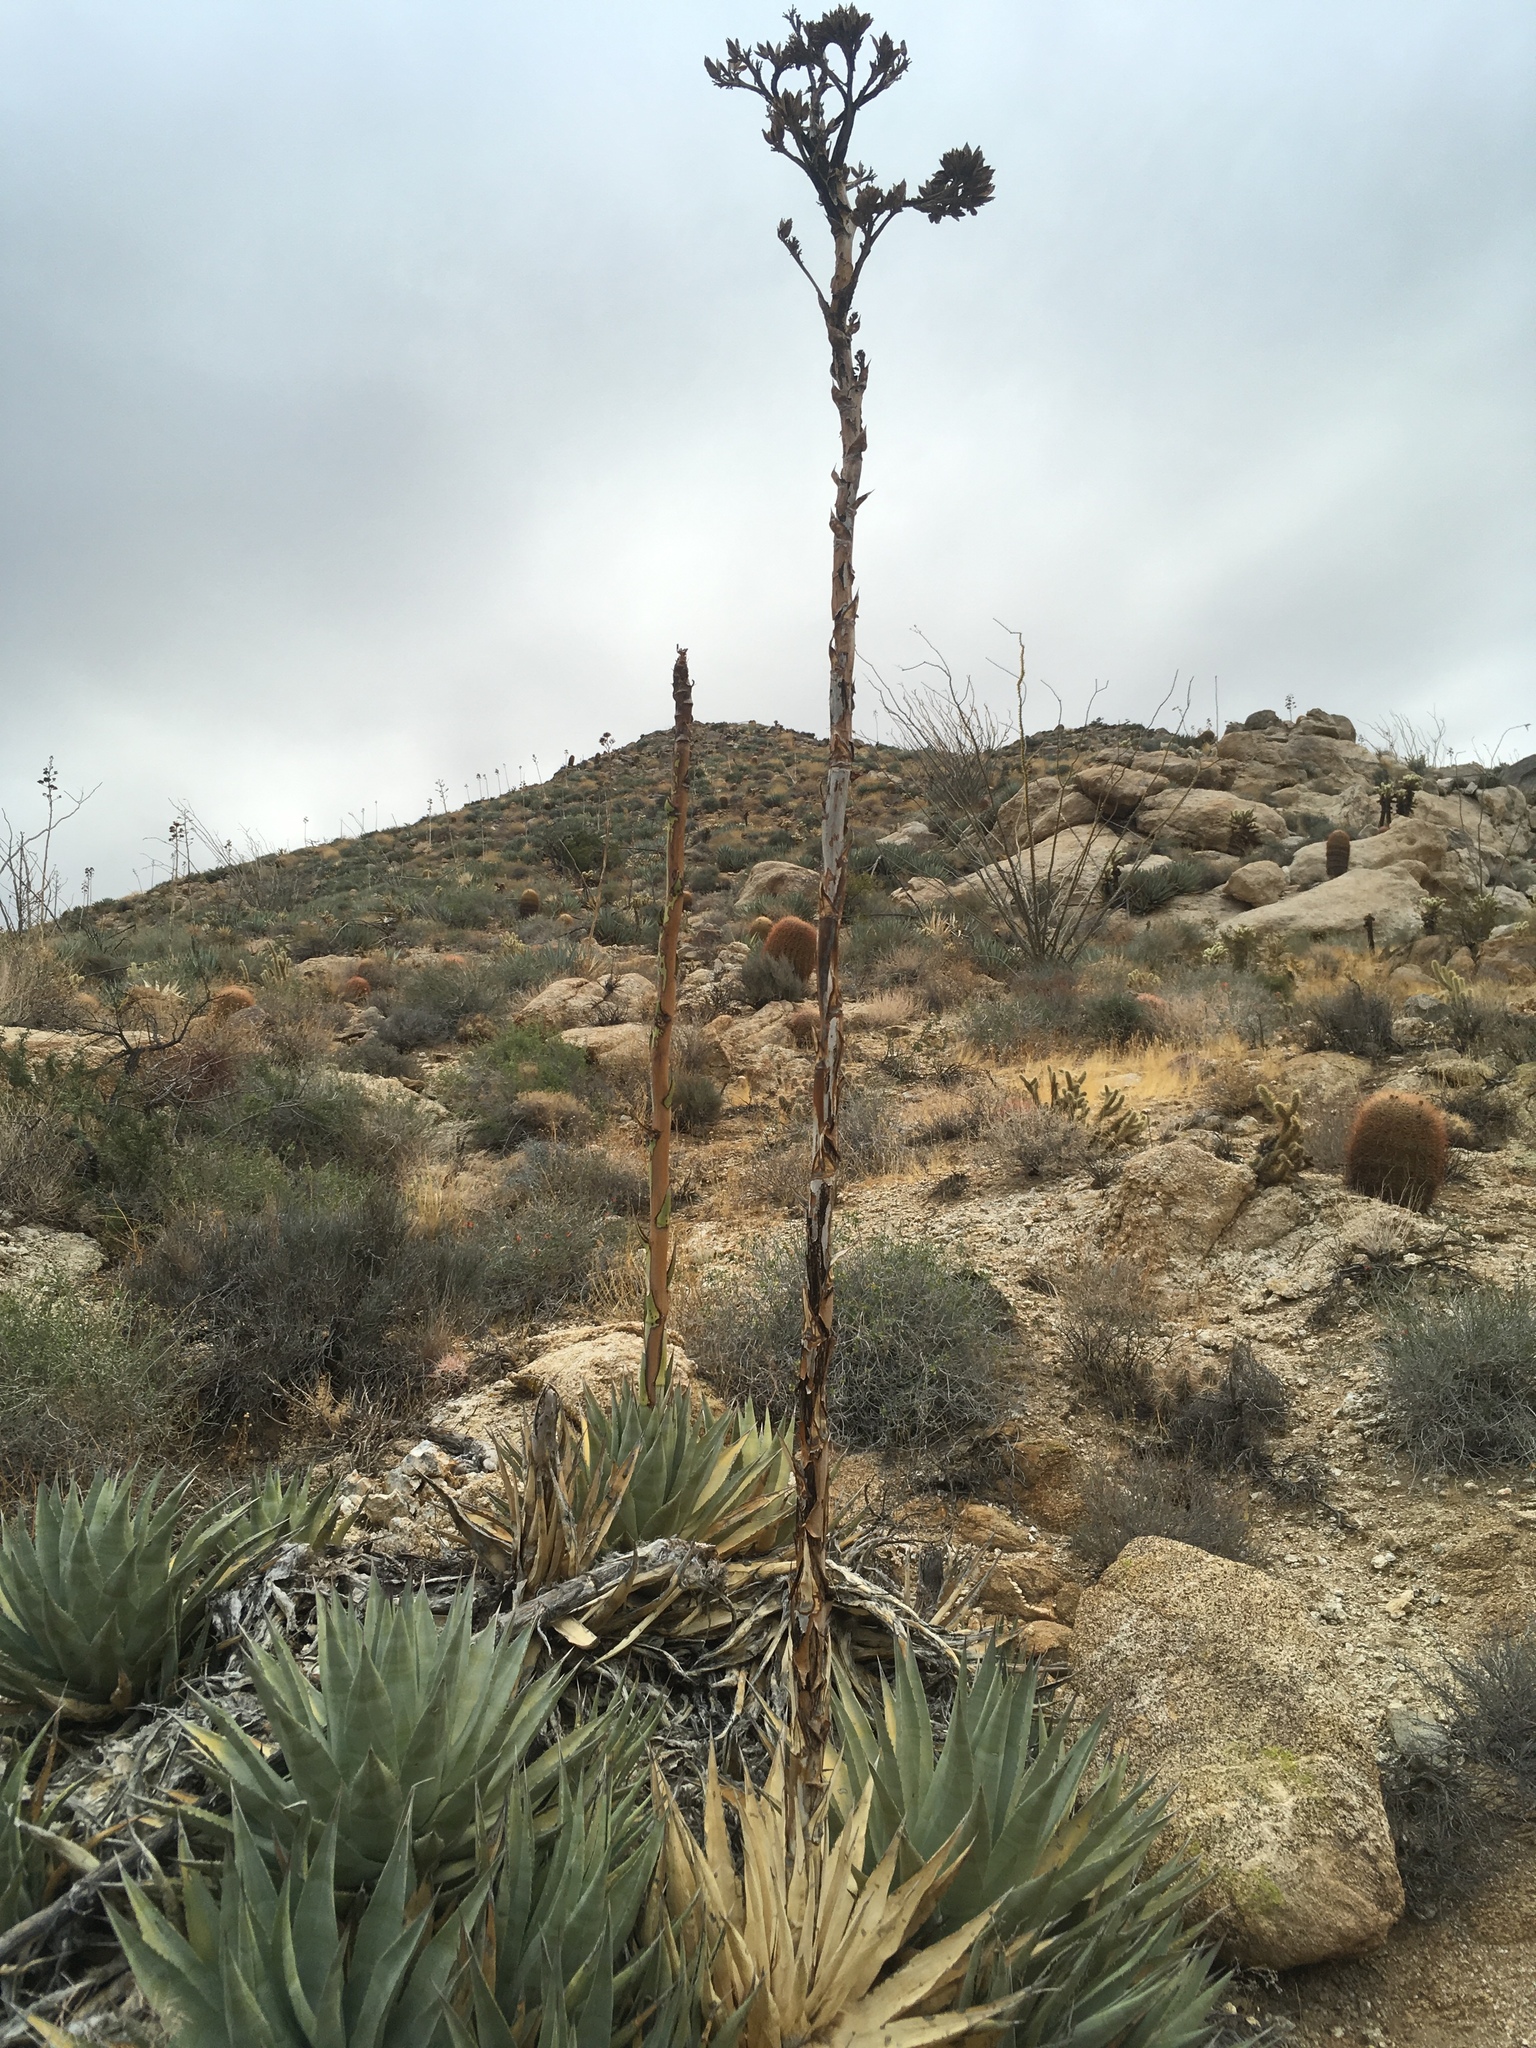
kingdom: Plantae
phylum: Tracheophyta
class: Liliopsida
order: Asparagales
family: Asparagaceae
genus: Agave
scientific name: Agave deserti
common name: Desert agave
